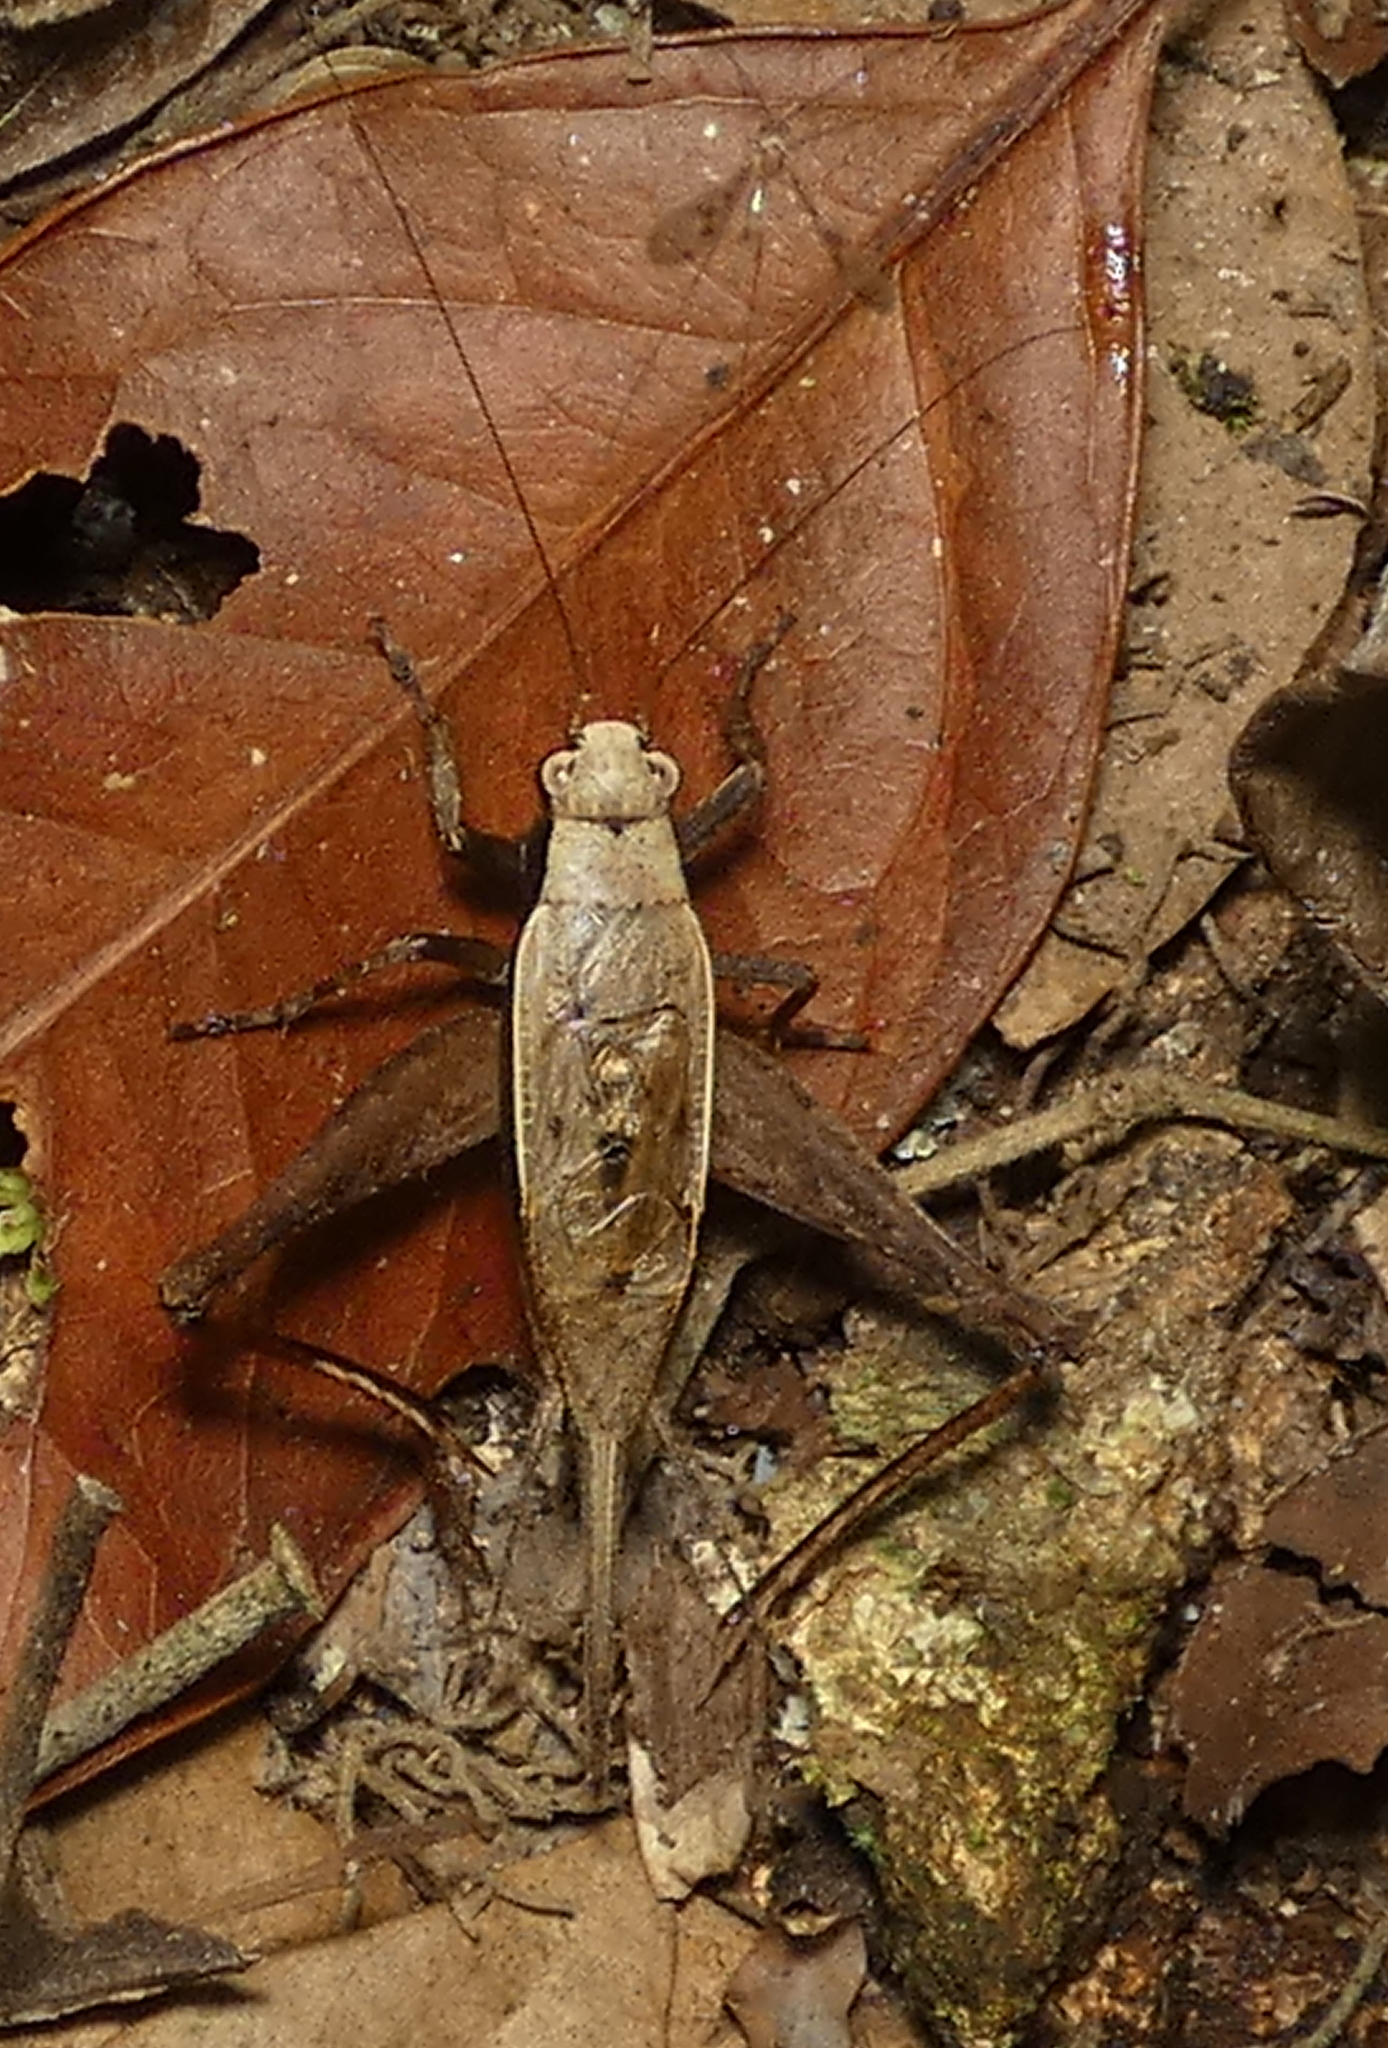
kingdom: Animalia
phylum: Arthropoda
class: Insecta
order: Orthoptera
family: Gryllidae
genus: Eneoptera
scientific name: Eneoptera surinamensis
